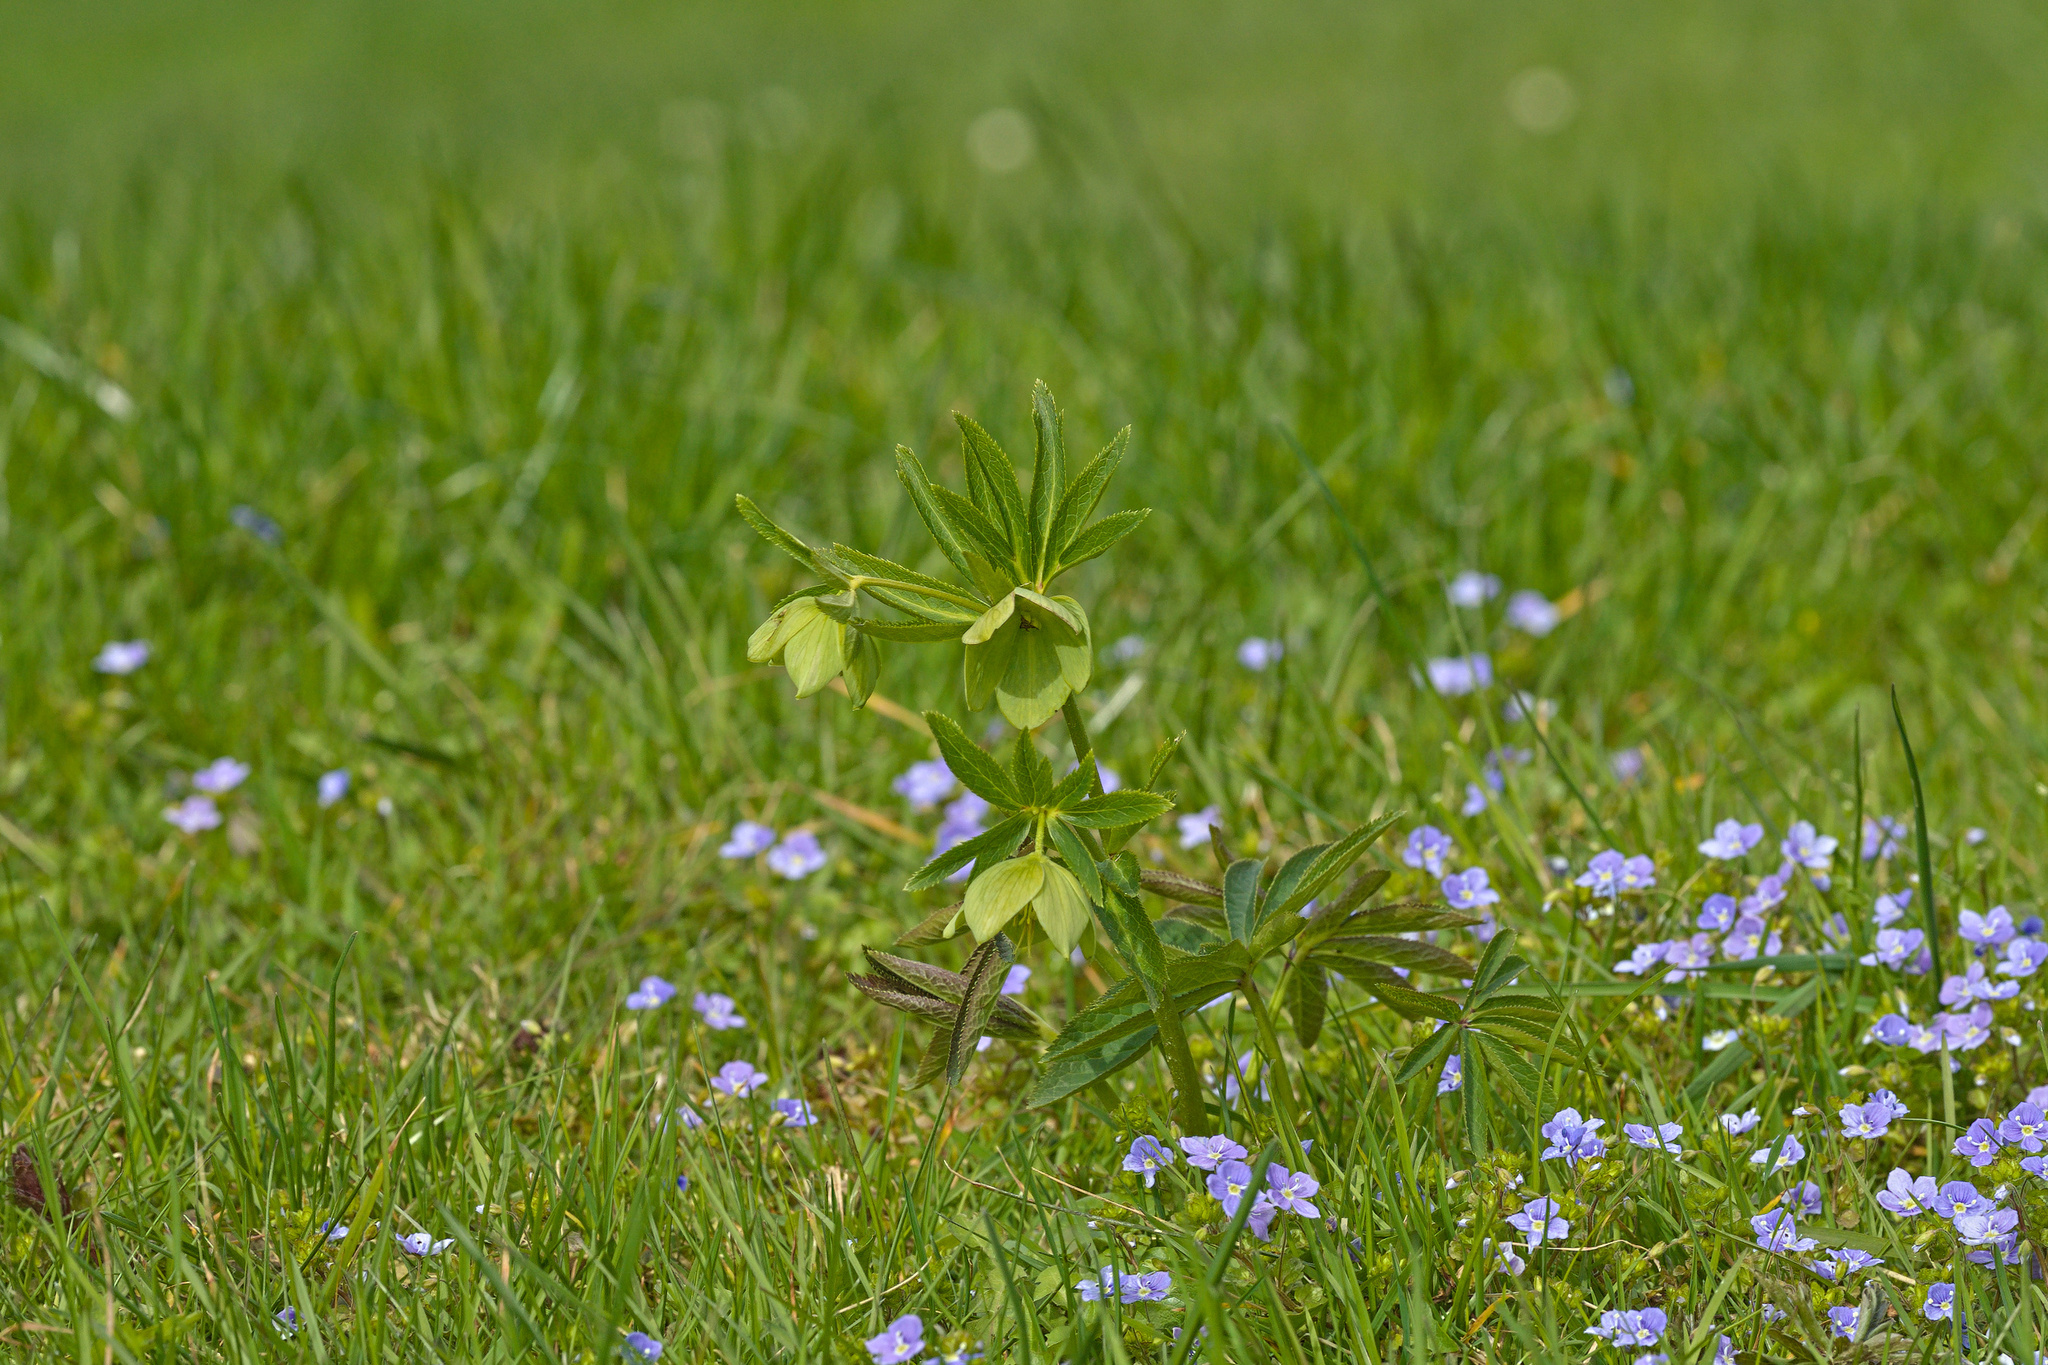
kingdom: Plantae
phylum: Tracheophyta
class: Magnoliopsida
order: Ranunculales
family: Ranunculaceae
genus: Helleborus
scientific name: Helleborus viridis
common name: Green hellebore
